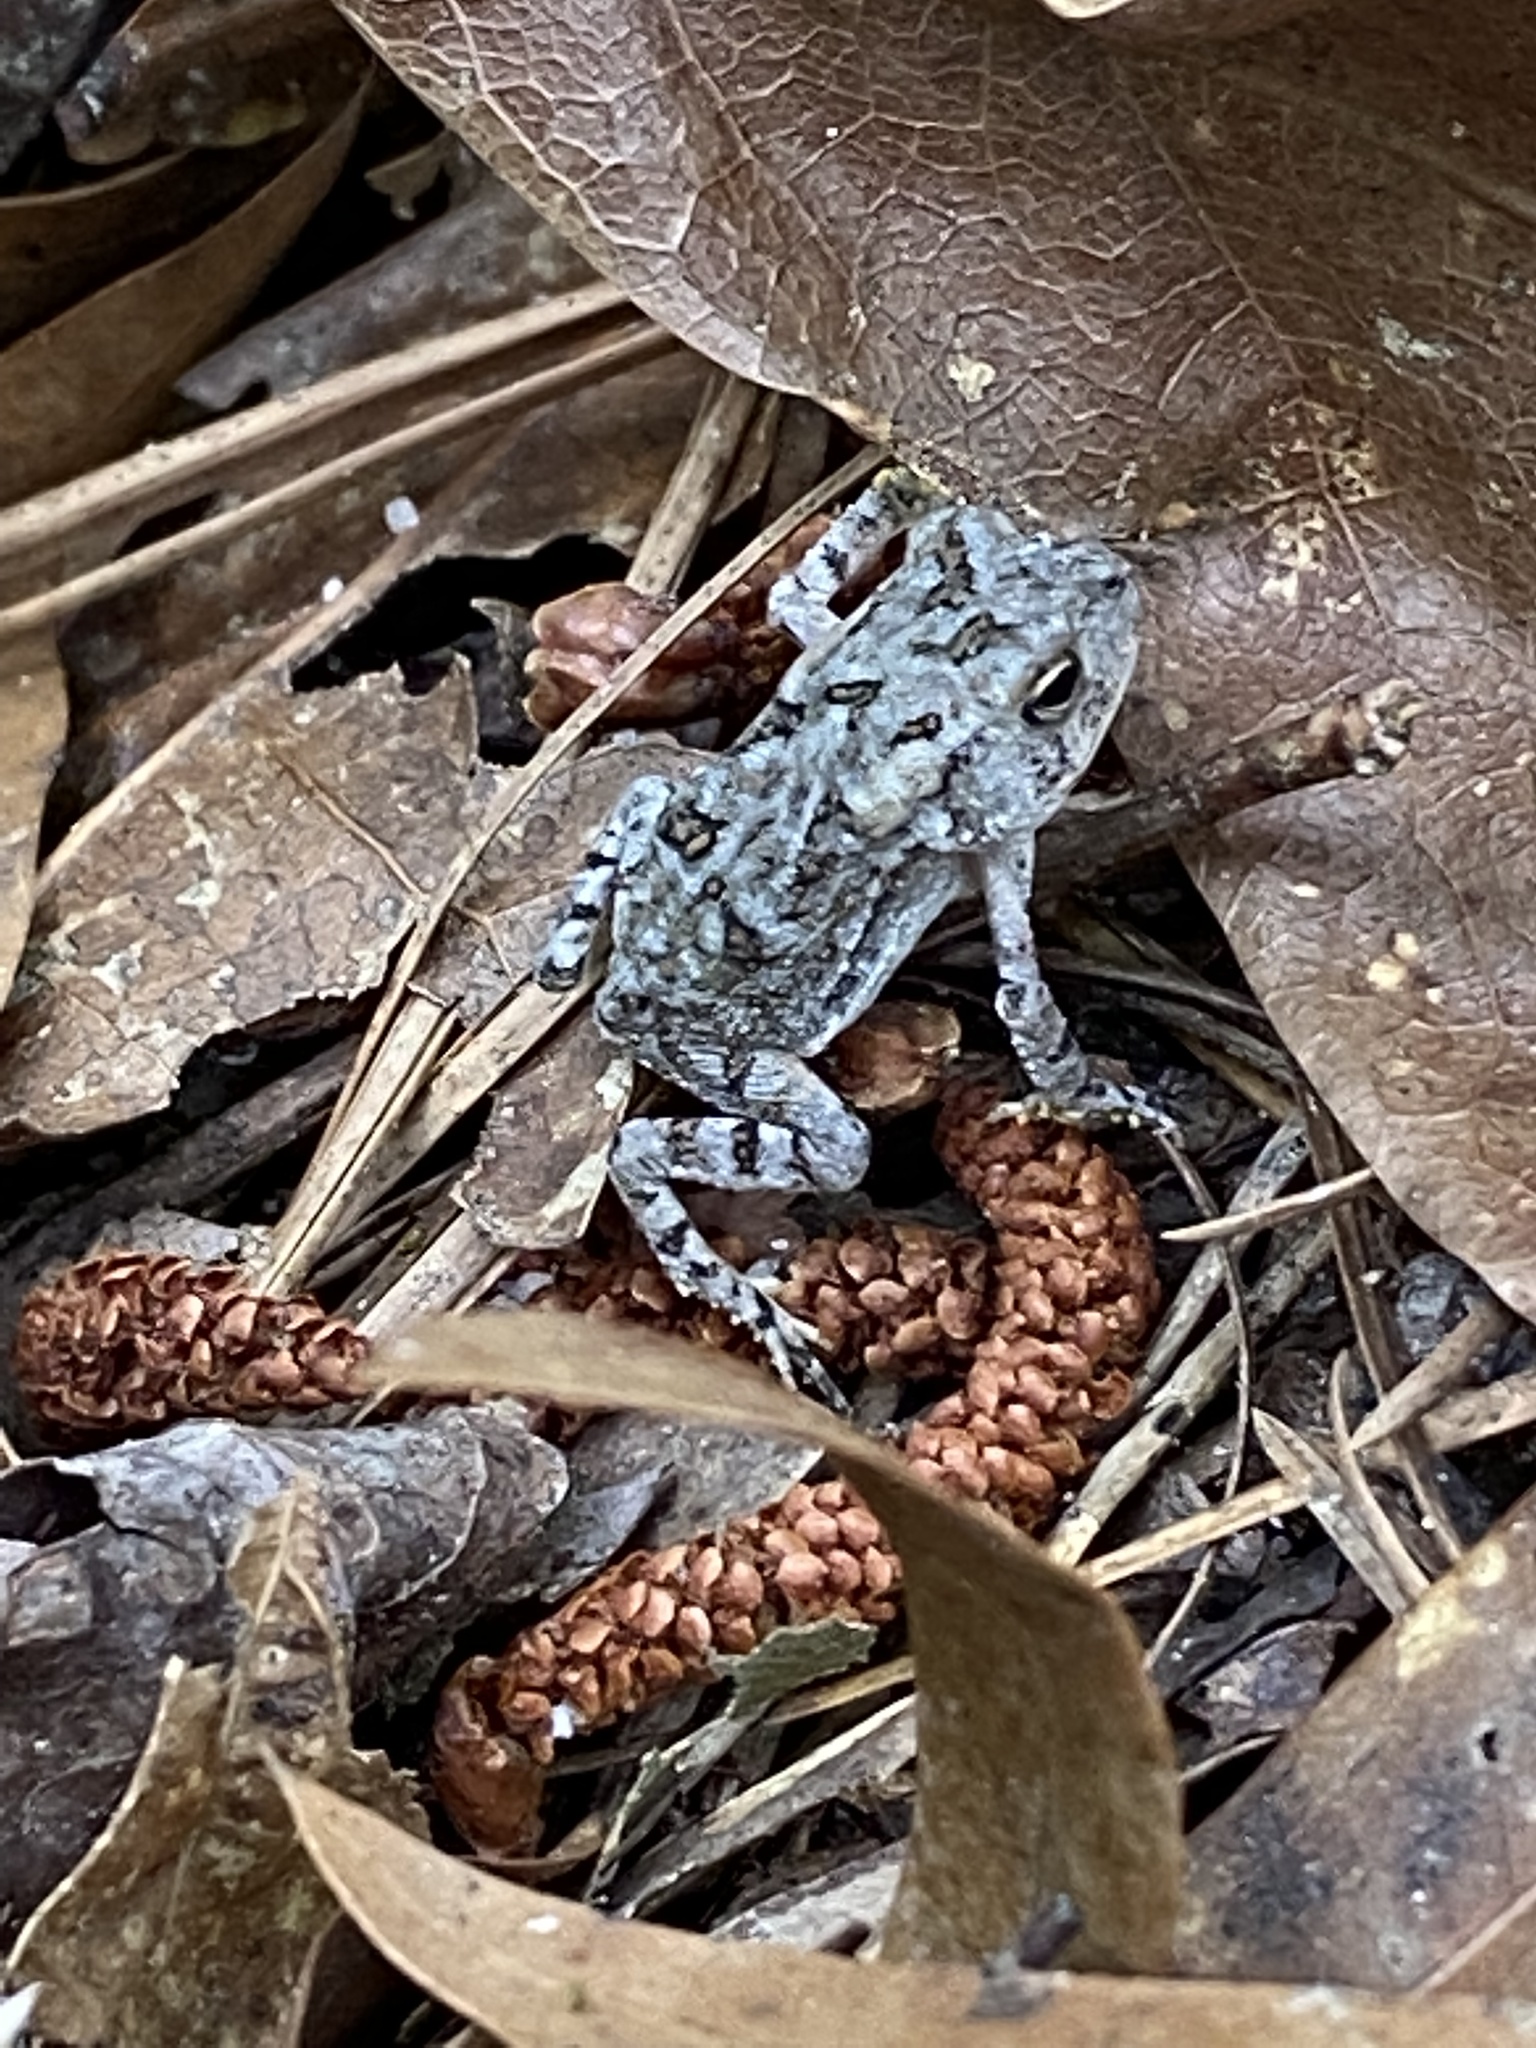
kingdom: Animalia
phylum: Chordata
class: Amphibia
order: Anura
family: Bufonidae
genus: Anaxyrus
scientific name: Anaxyrus terrestris
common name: Southern toad
